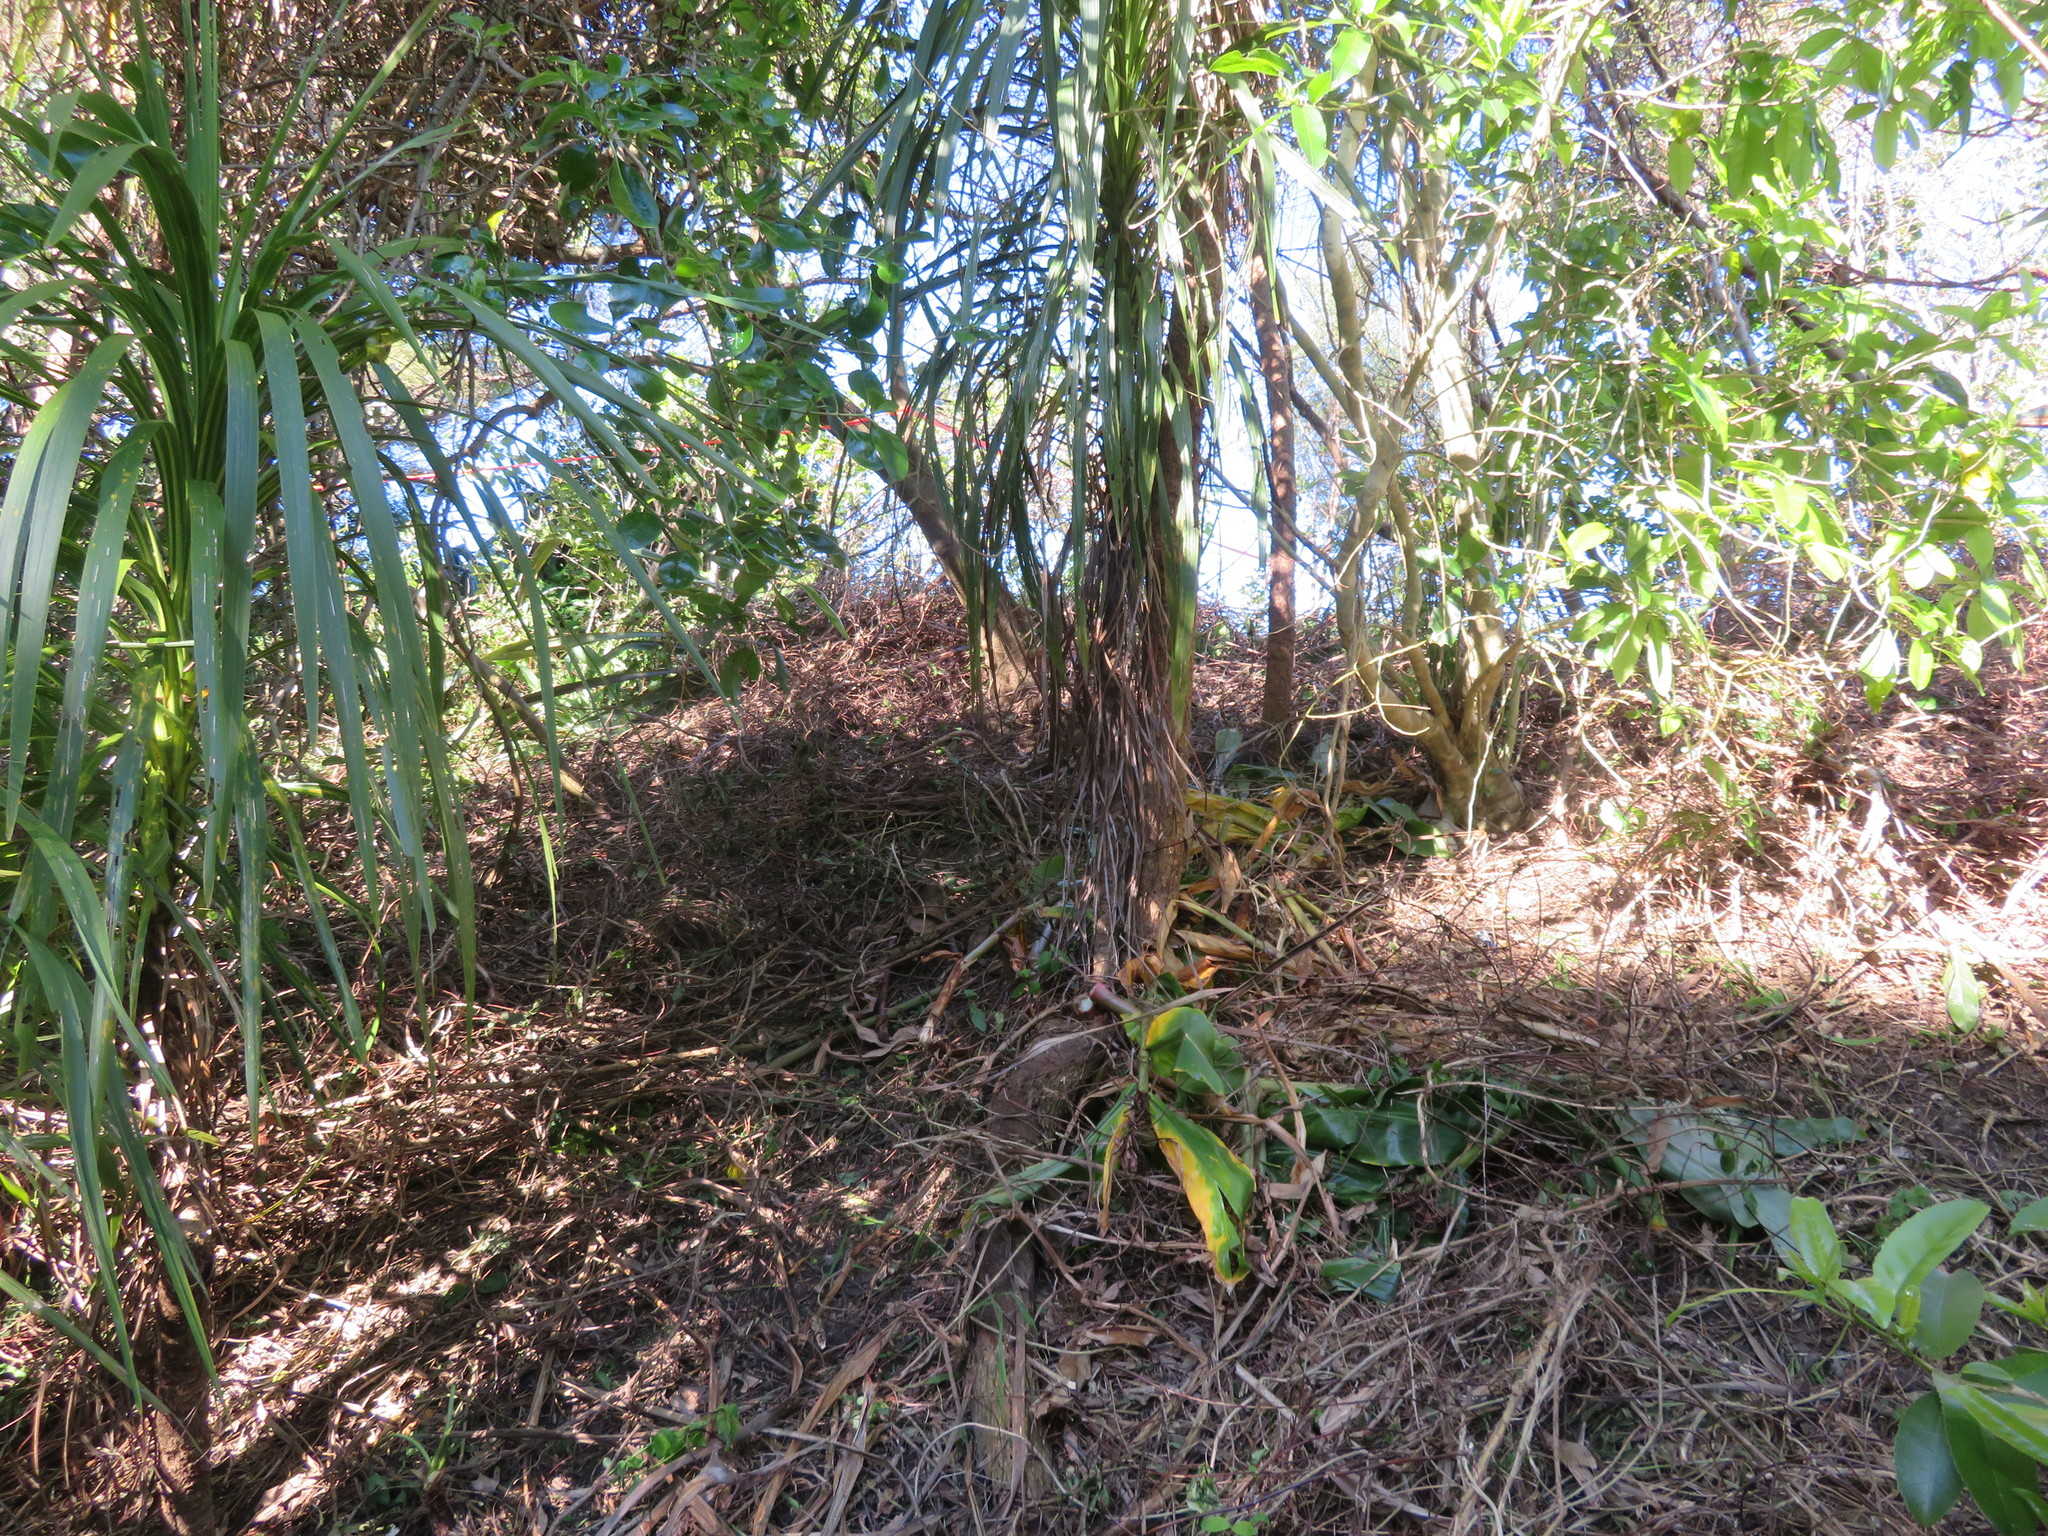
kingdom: Plantae
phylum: Tracheophyta
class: Liliopsida
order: Asparagales
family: Asparagaceae
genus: Cordyline
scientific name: Cordyline australis
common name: Cabbage-palm
